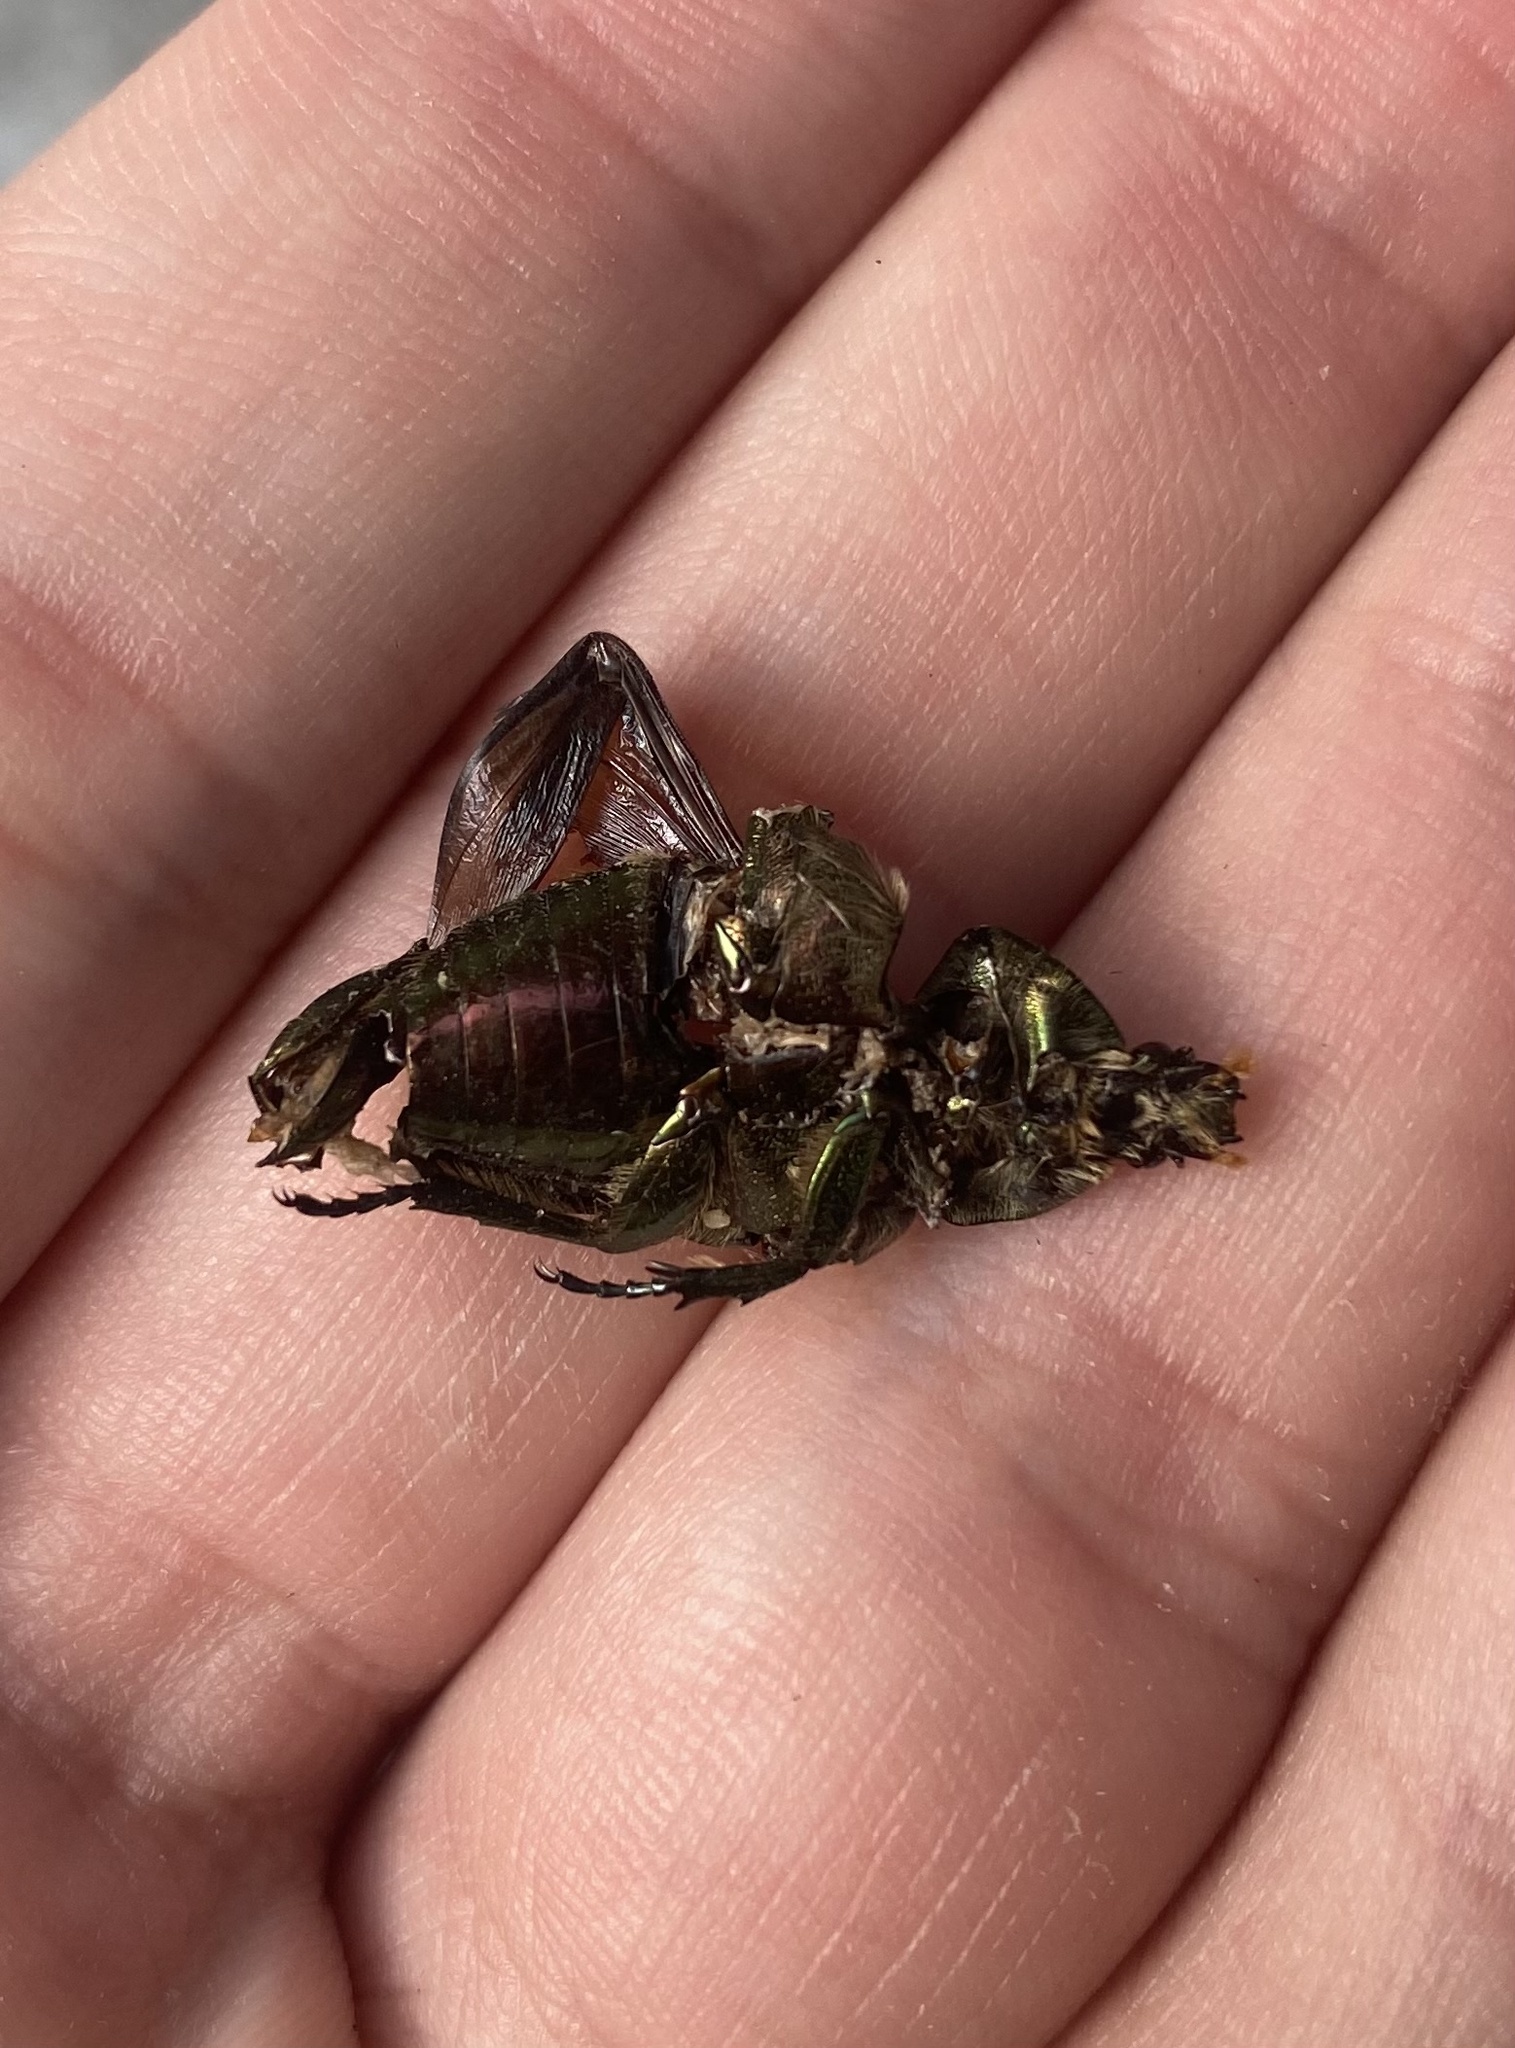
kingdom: Animalia
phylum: Arthropoda
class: Insecta
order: Coleoptera
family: Scarabaeidae
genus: Cetonia
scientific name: Cetonia aurata
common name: Rose chafer
